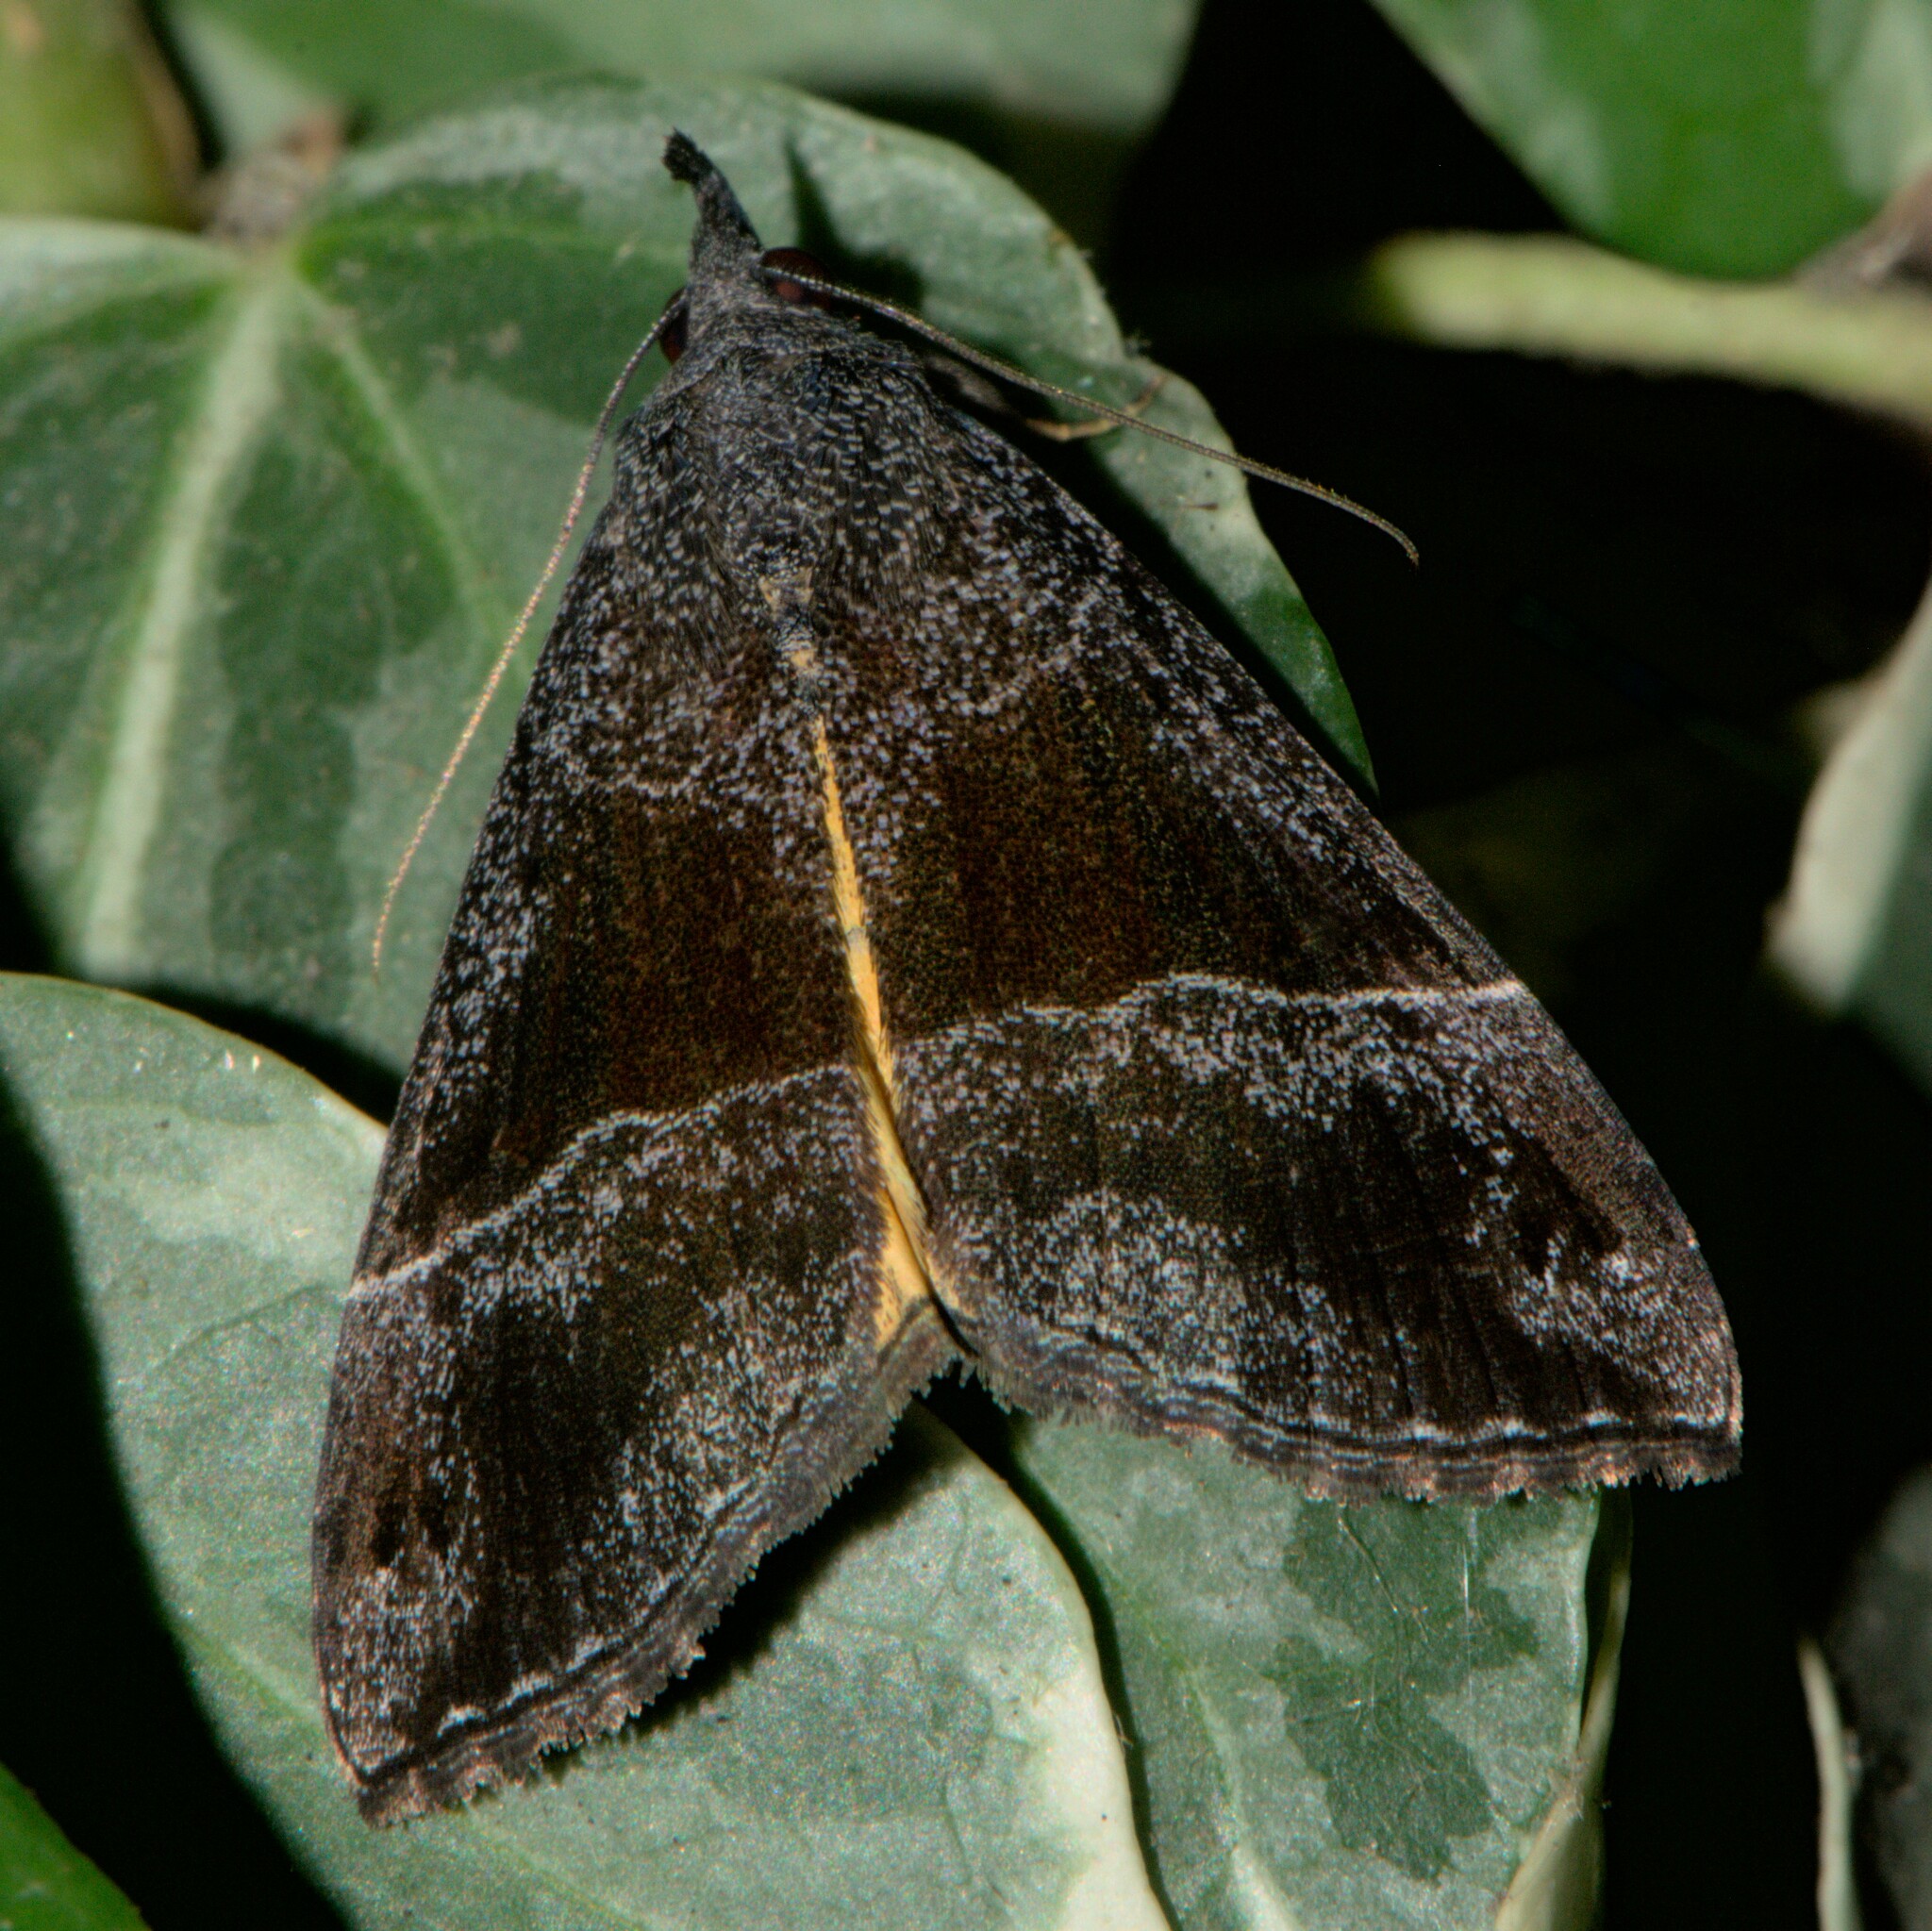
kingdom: Animalia
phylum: Arthropoda
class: Insecta
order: Lepidoptera
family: Erebidae
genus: Hypena
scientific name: Hypena amica
